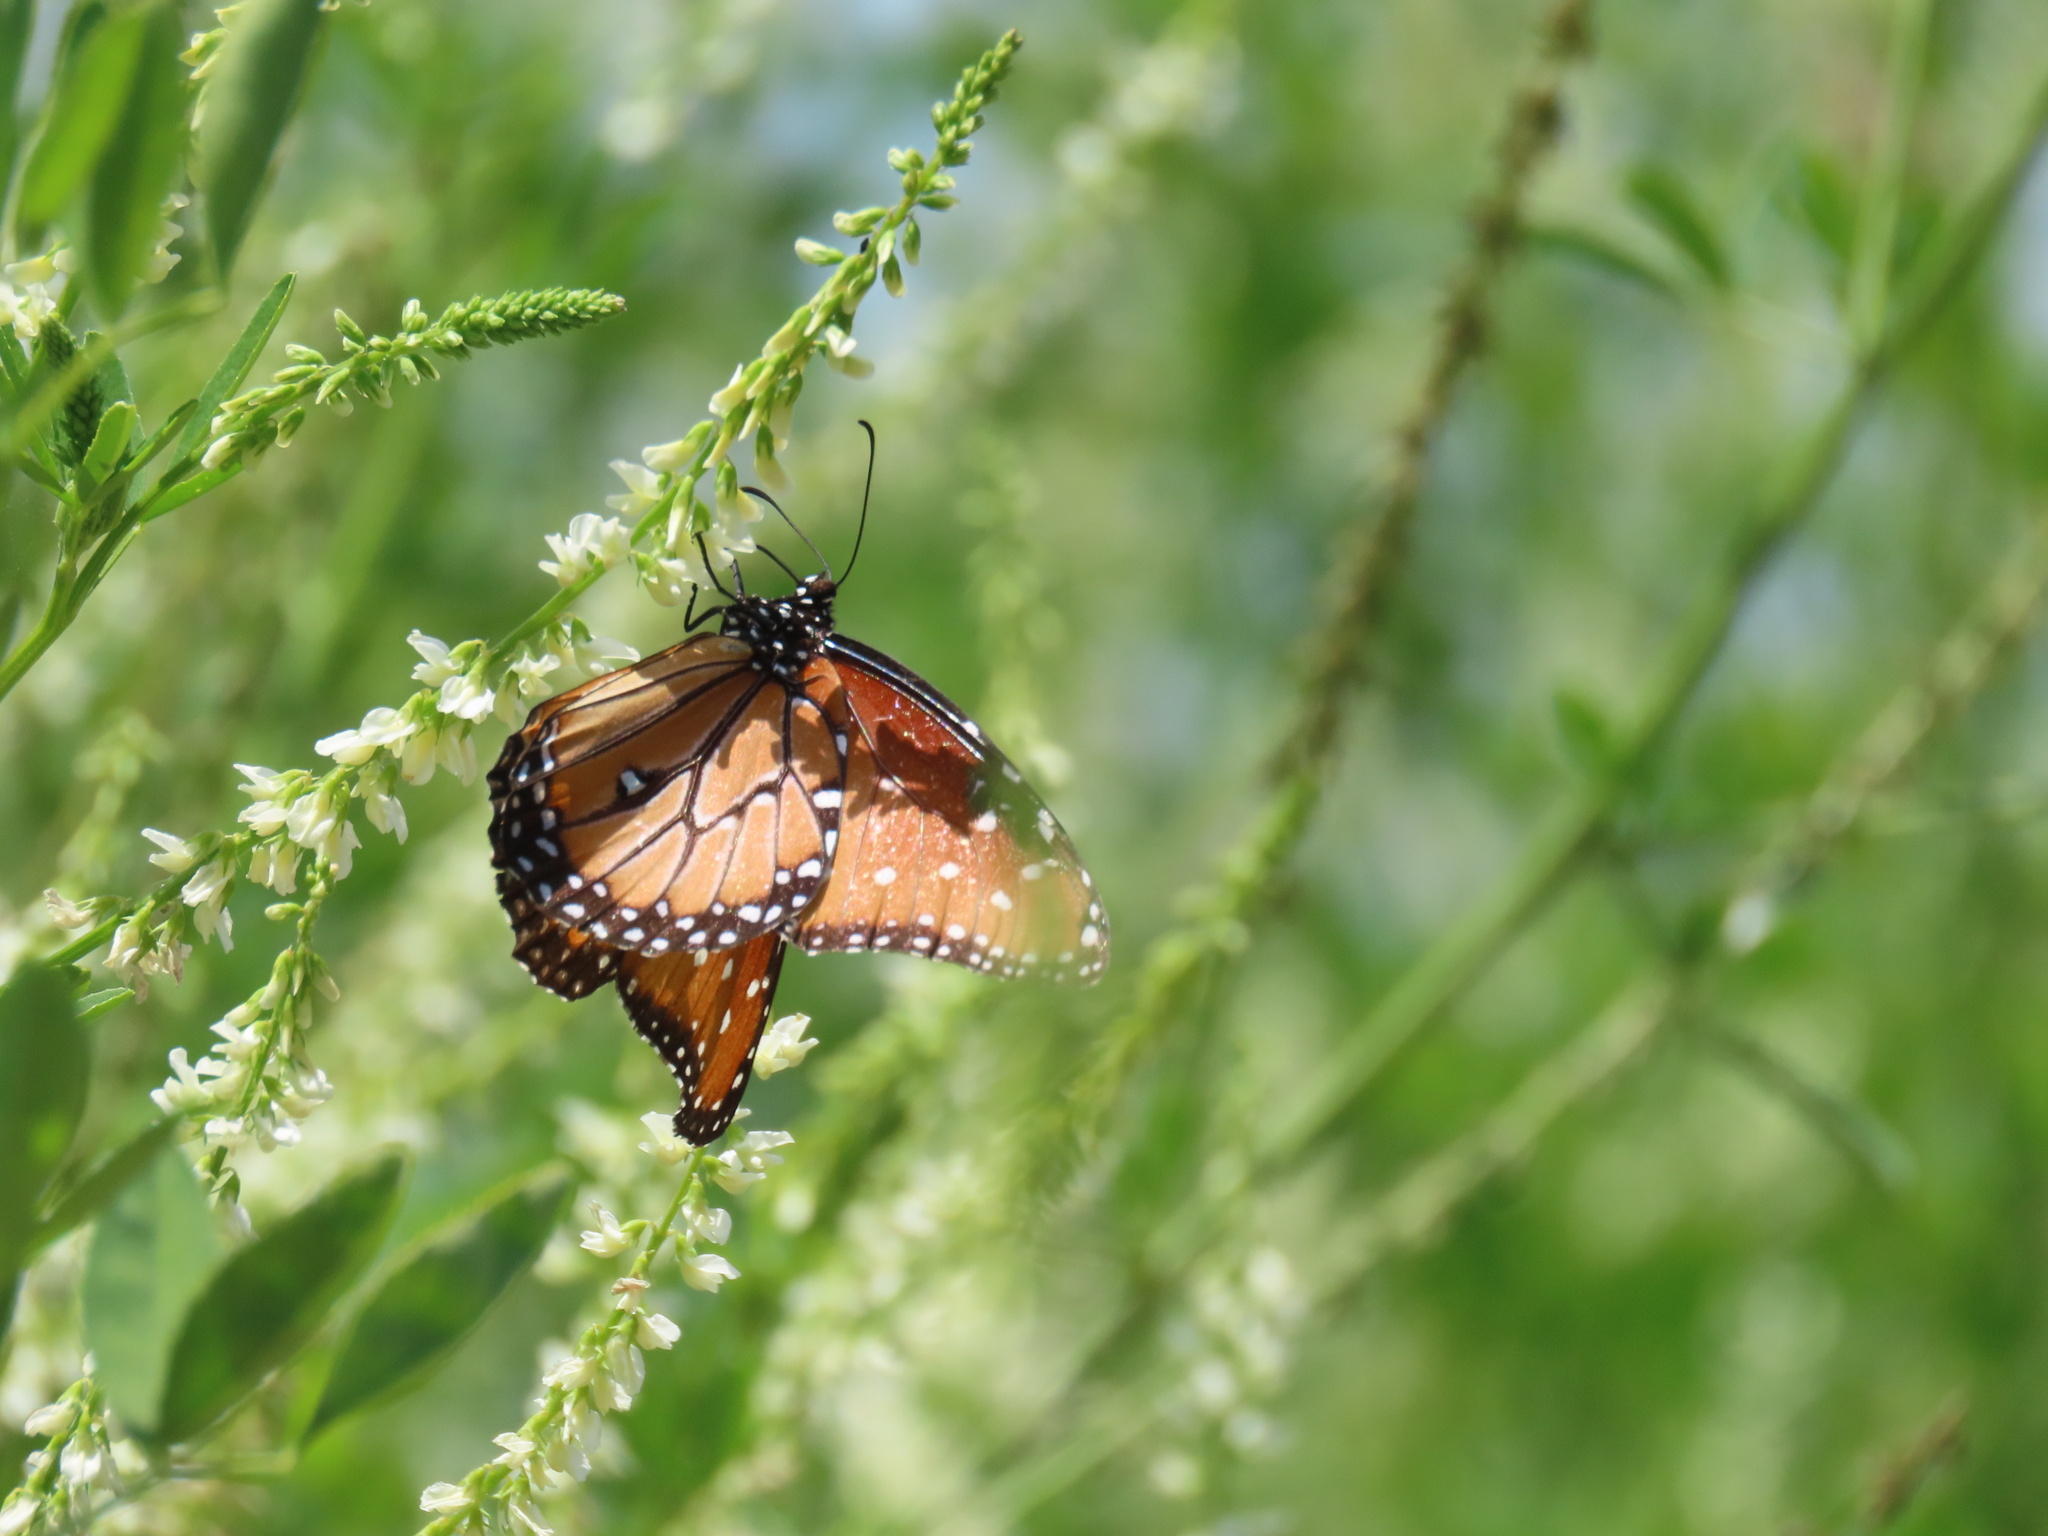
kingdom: Animalia
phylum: Arthropoda
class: Insecta
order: Lepidoptera
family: Nymphalidae
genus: Danaus
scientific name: Danaus gilippus
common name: Queen
